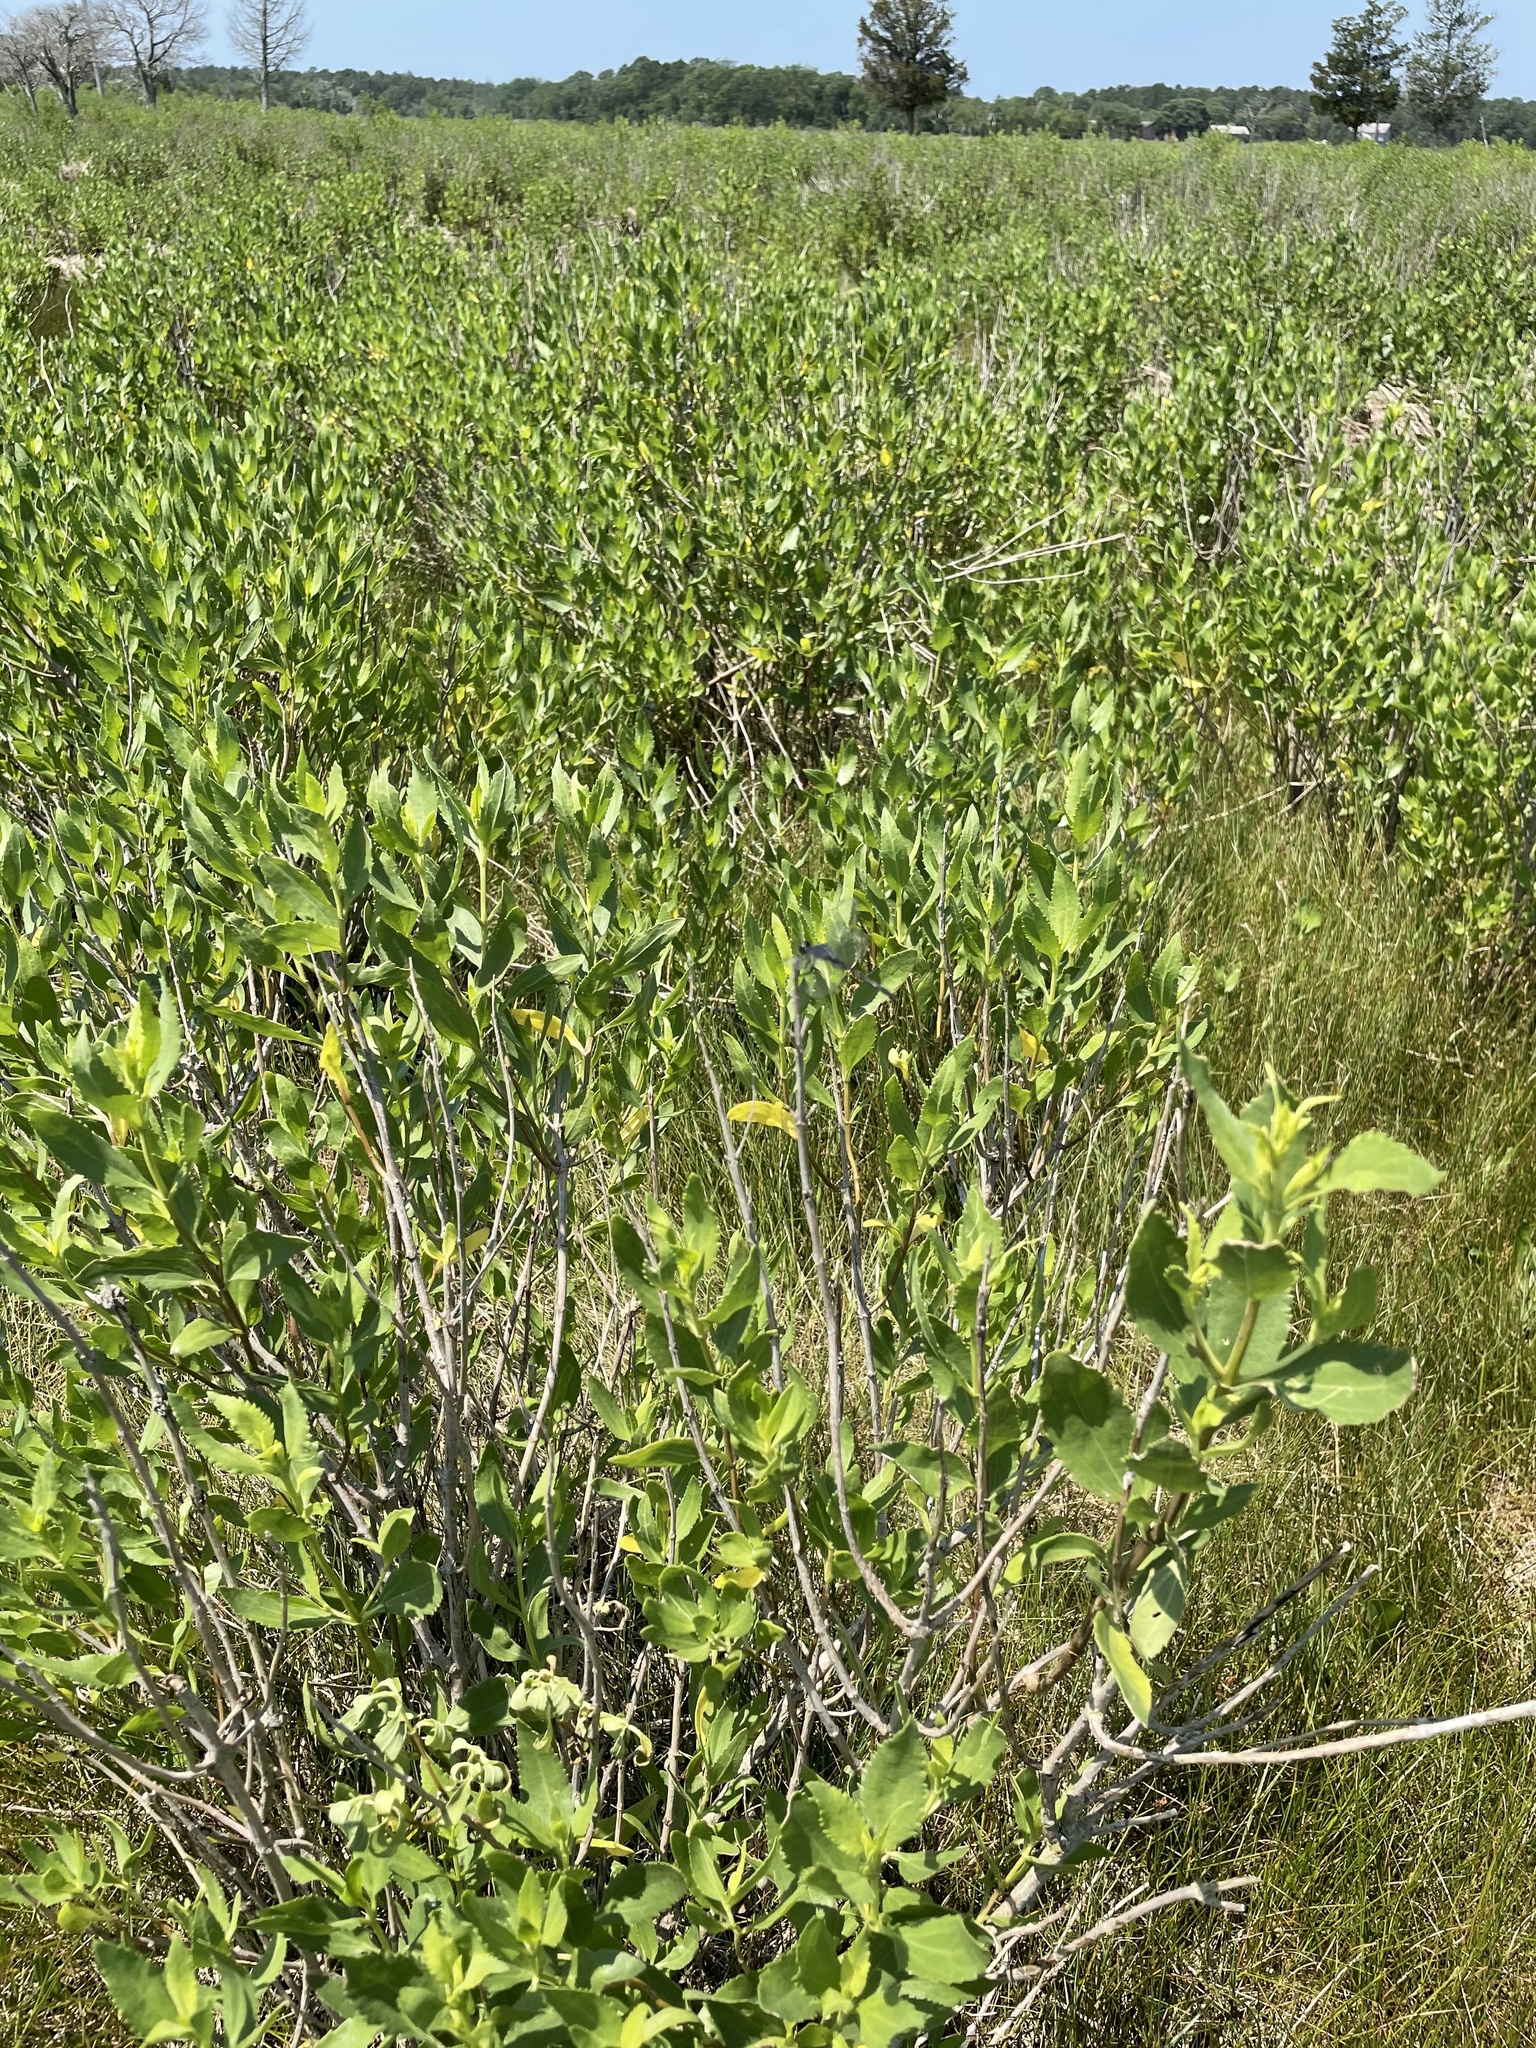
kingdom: Plantae
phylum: Tracheophyta
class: Magnoliopsida
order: Asterales
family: Asteraceae
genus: Iva
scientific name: Iva frutescens
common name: Big-leaved marsh-elder
